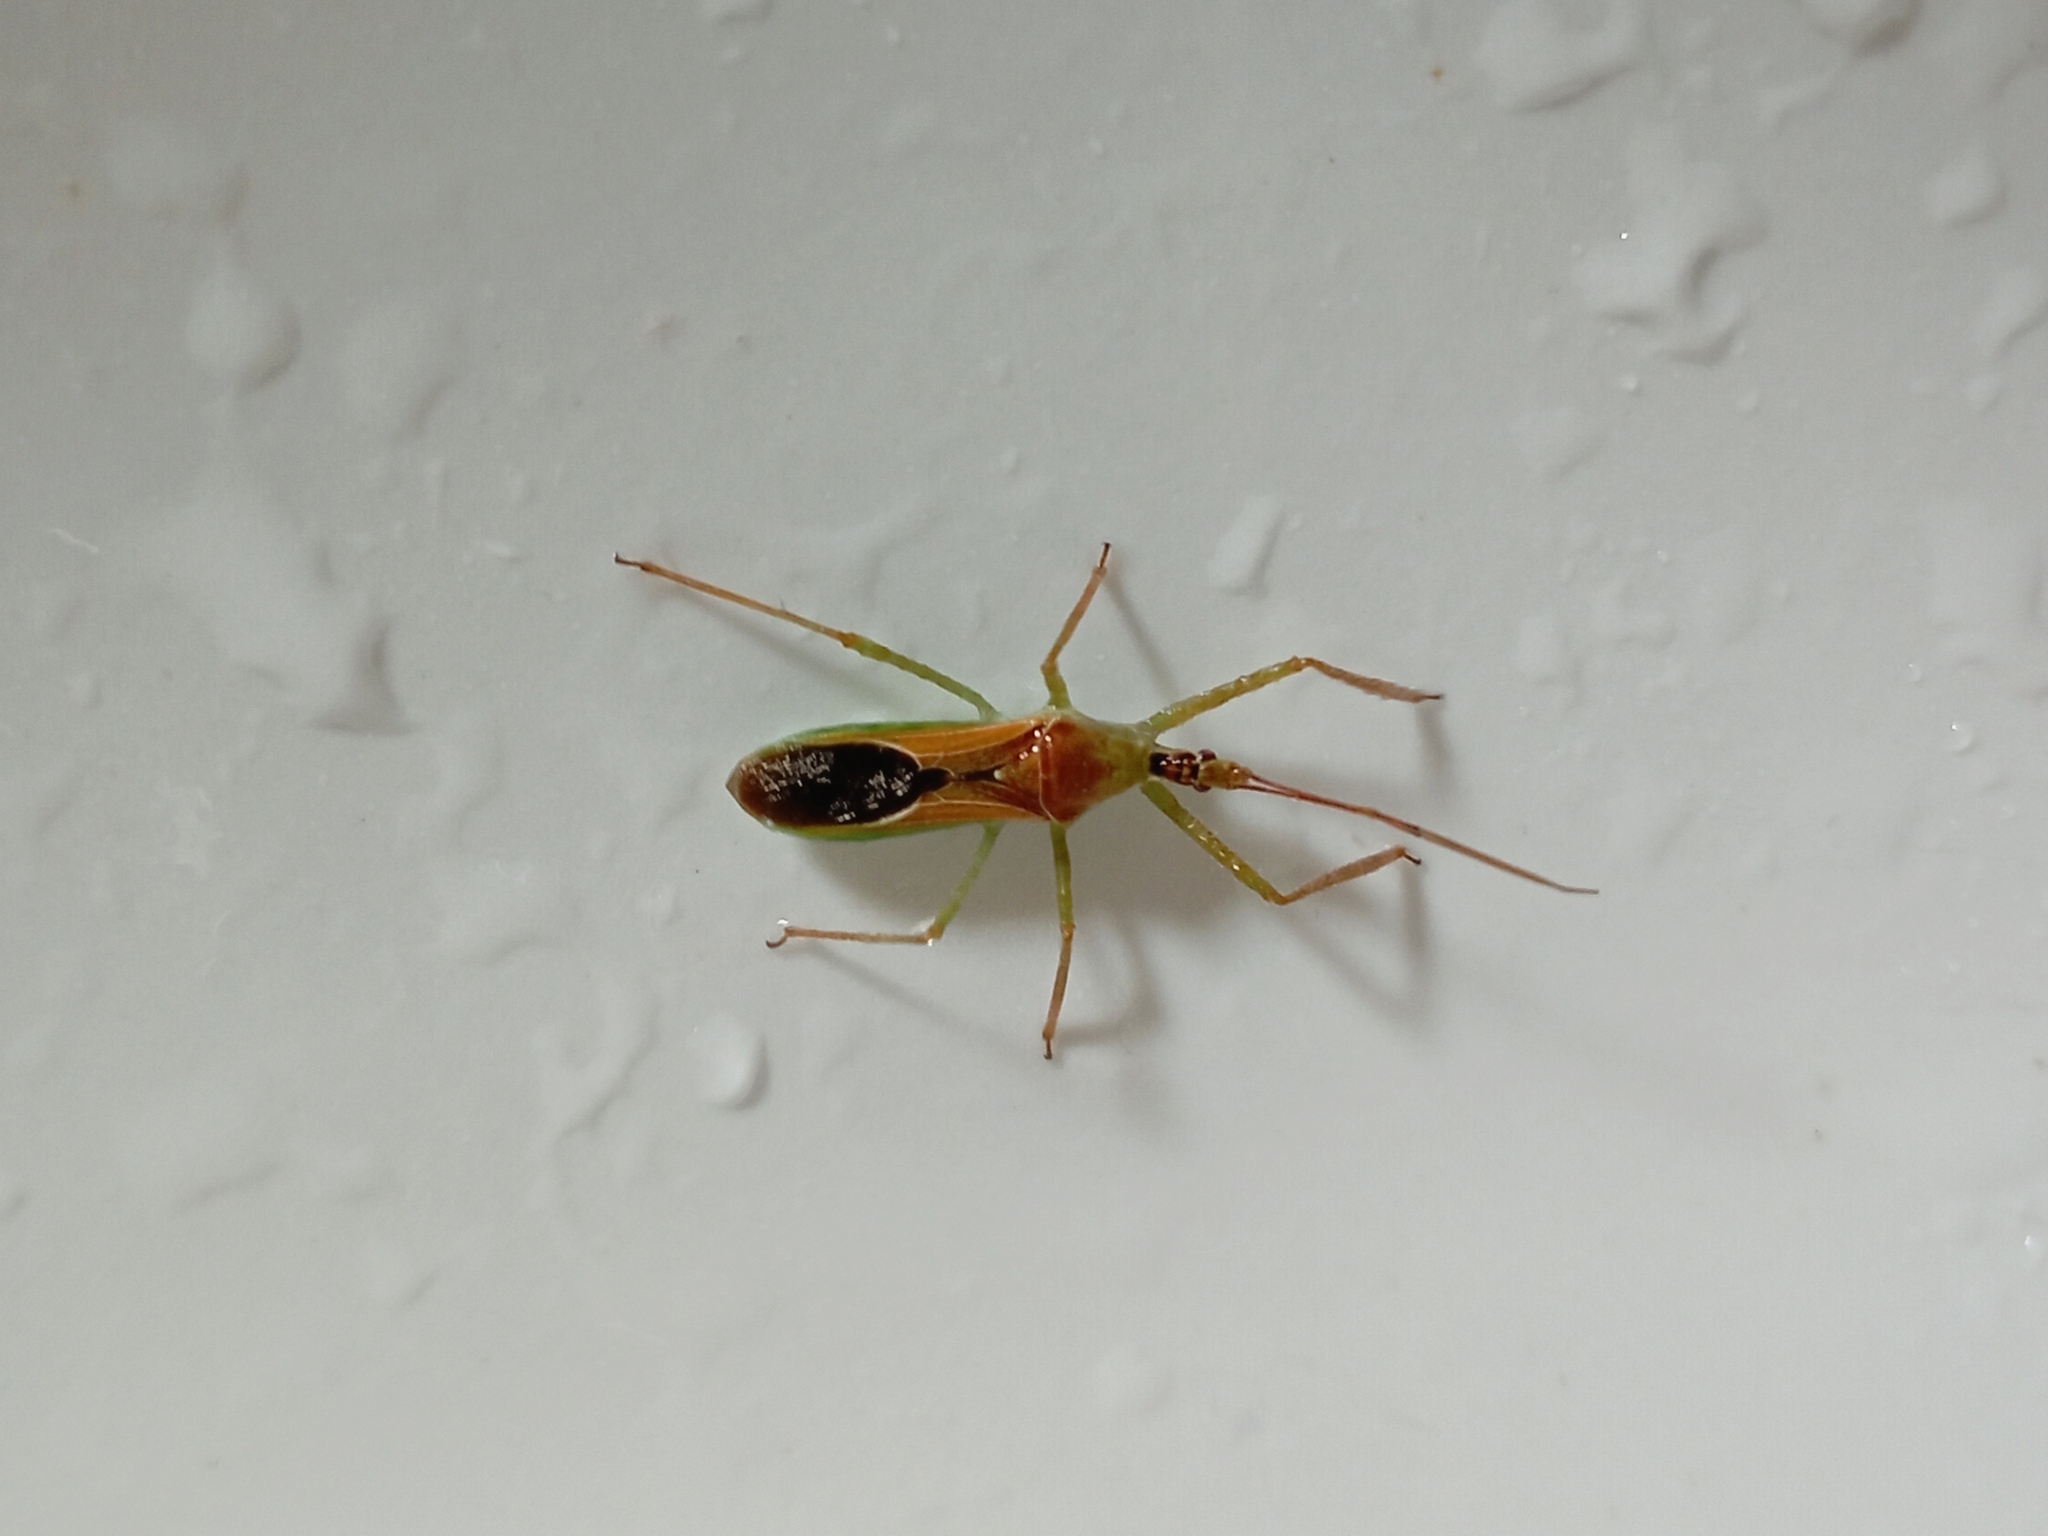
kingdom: Animalia
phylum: Arthropoda
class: Insecta
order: Hemiptera
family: Reduviidae
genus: Zelus
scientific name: Zelus renardii
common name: Assassin bug
